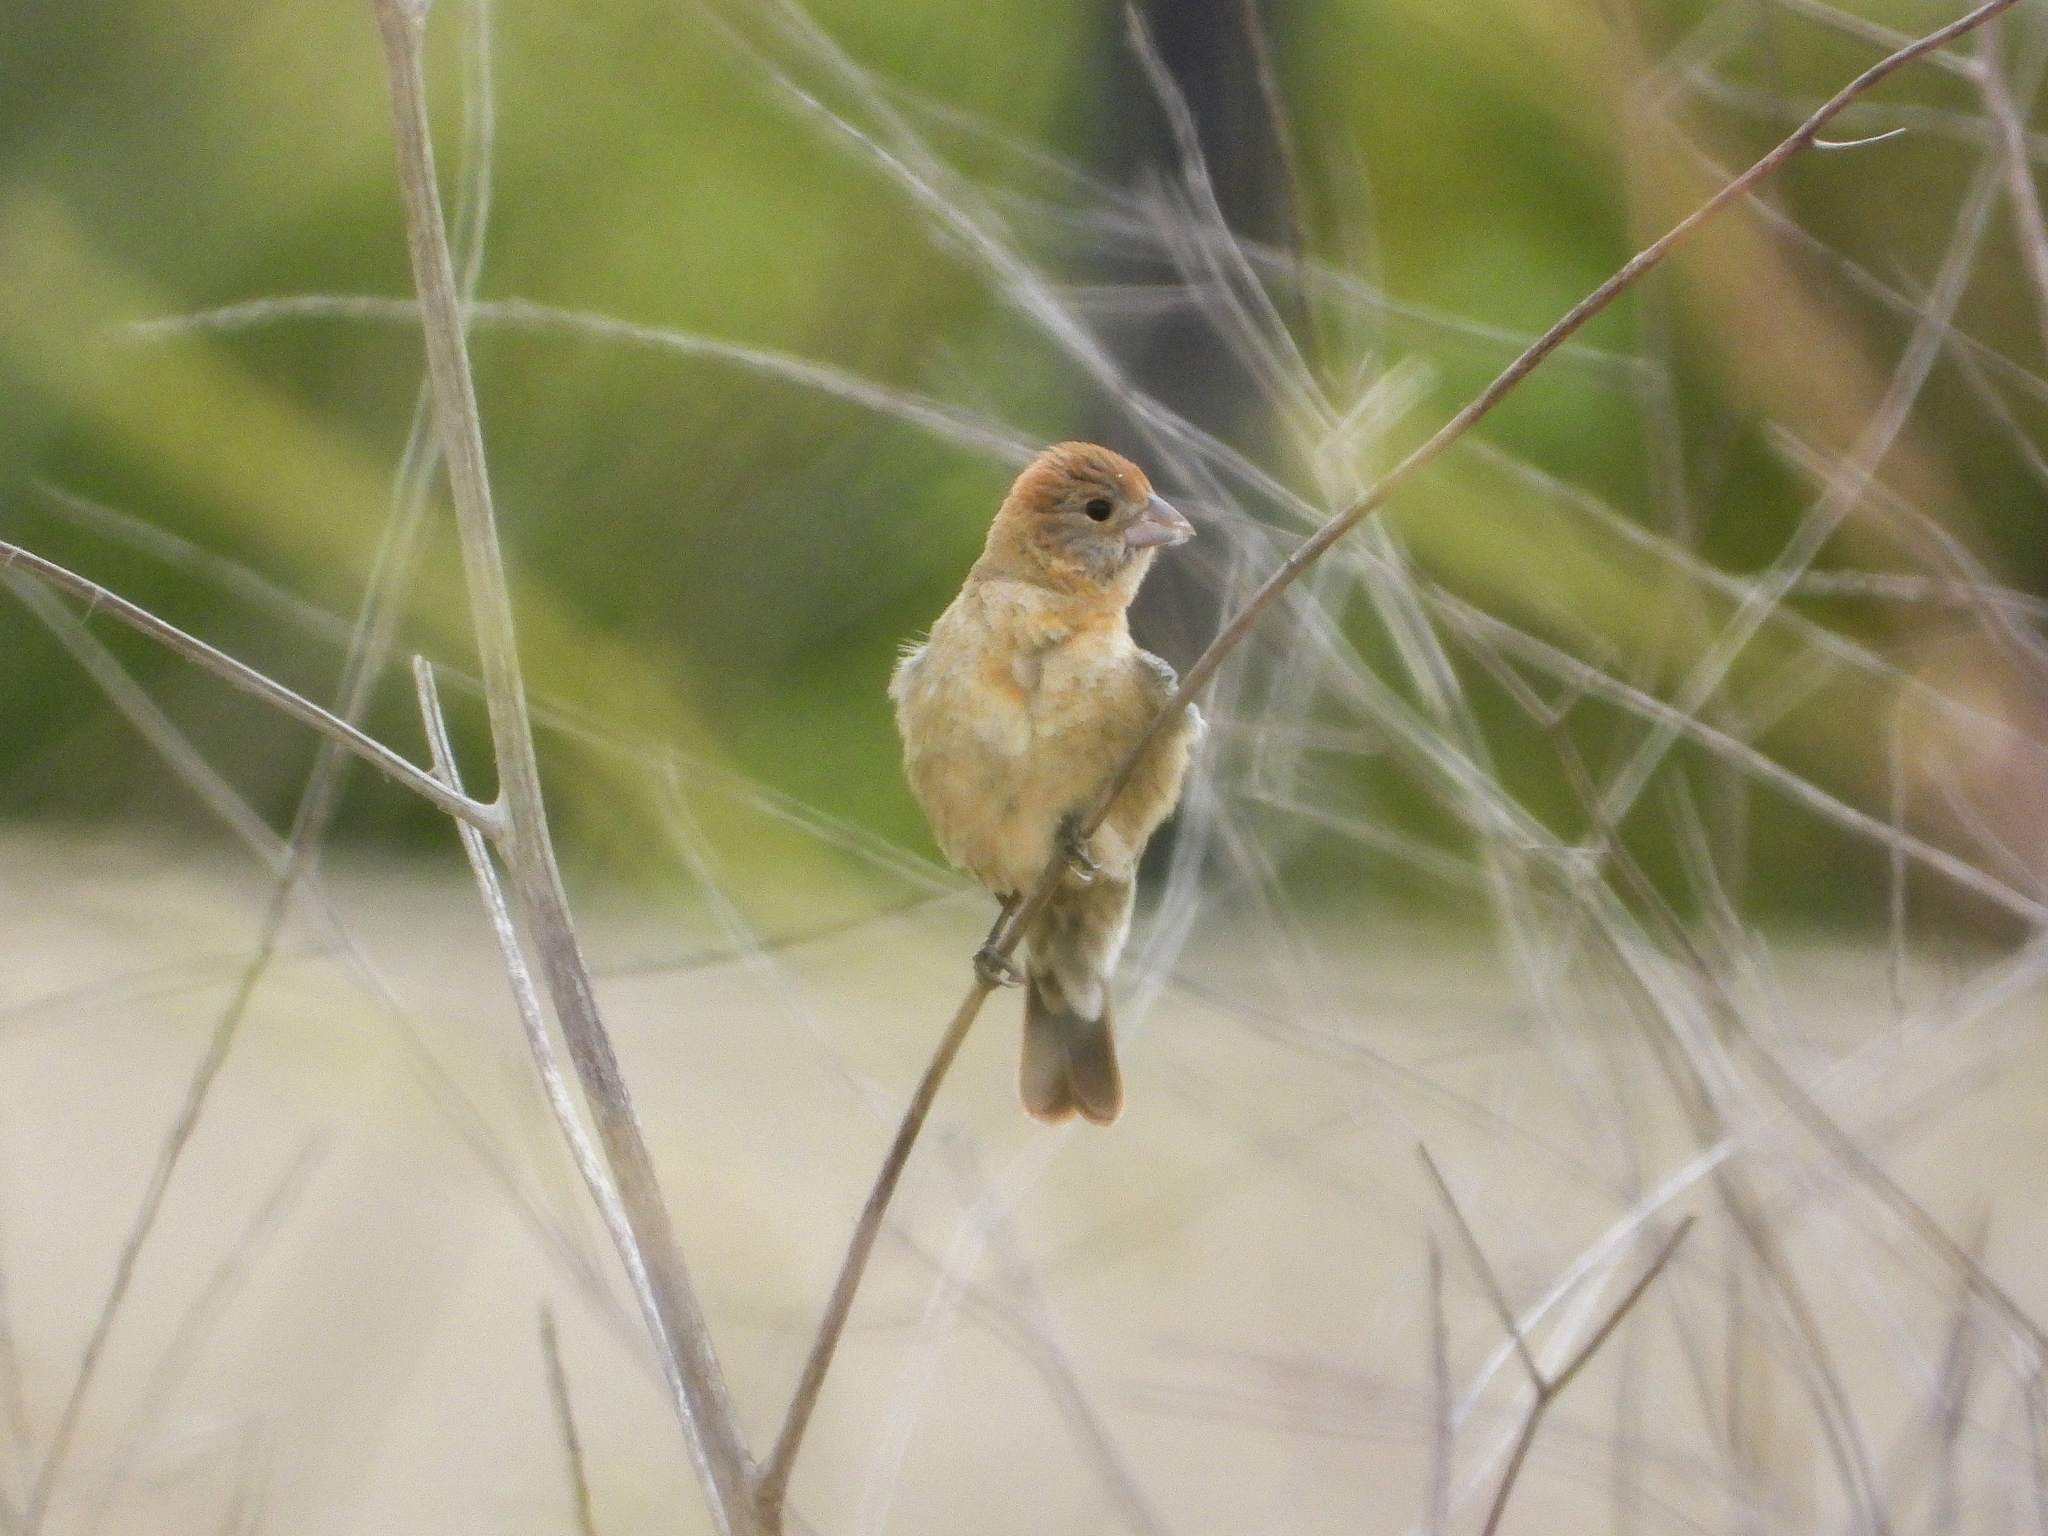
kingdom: Animalia
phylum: Chordata
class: Aves
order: Passeriformes
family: Cardinalidae
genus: Passerina
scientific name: Passerina caerulea
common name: Blue grosbeak
